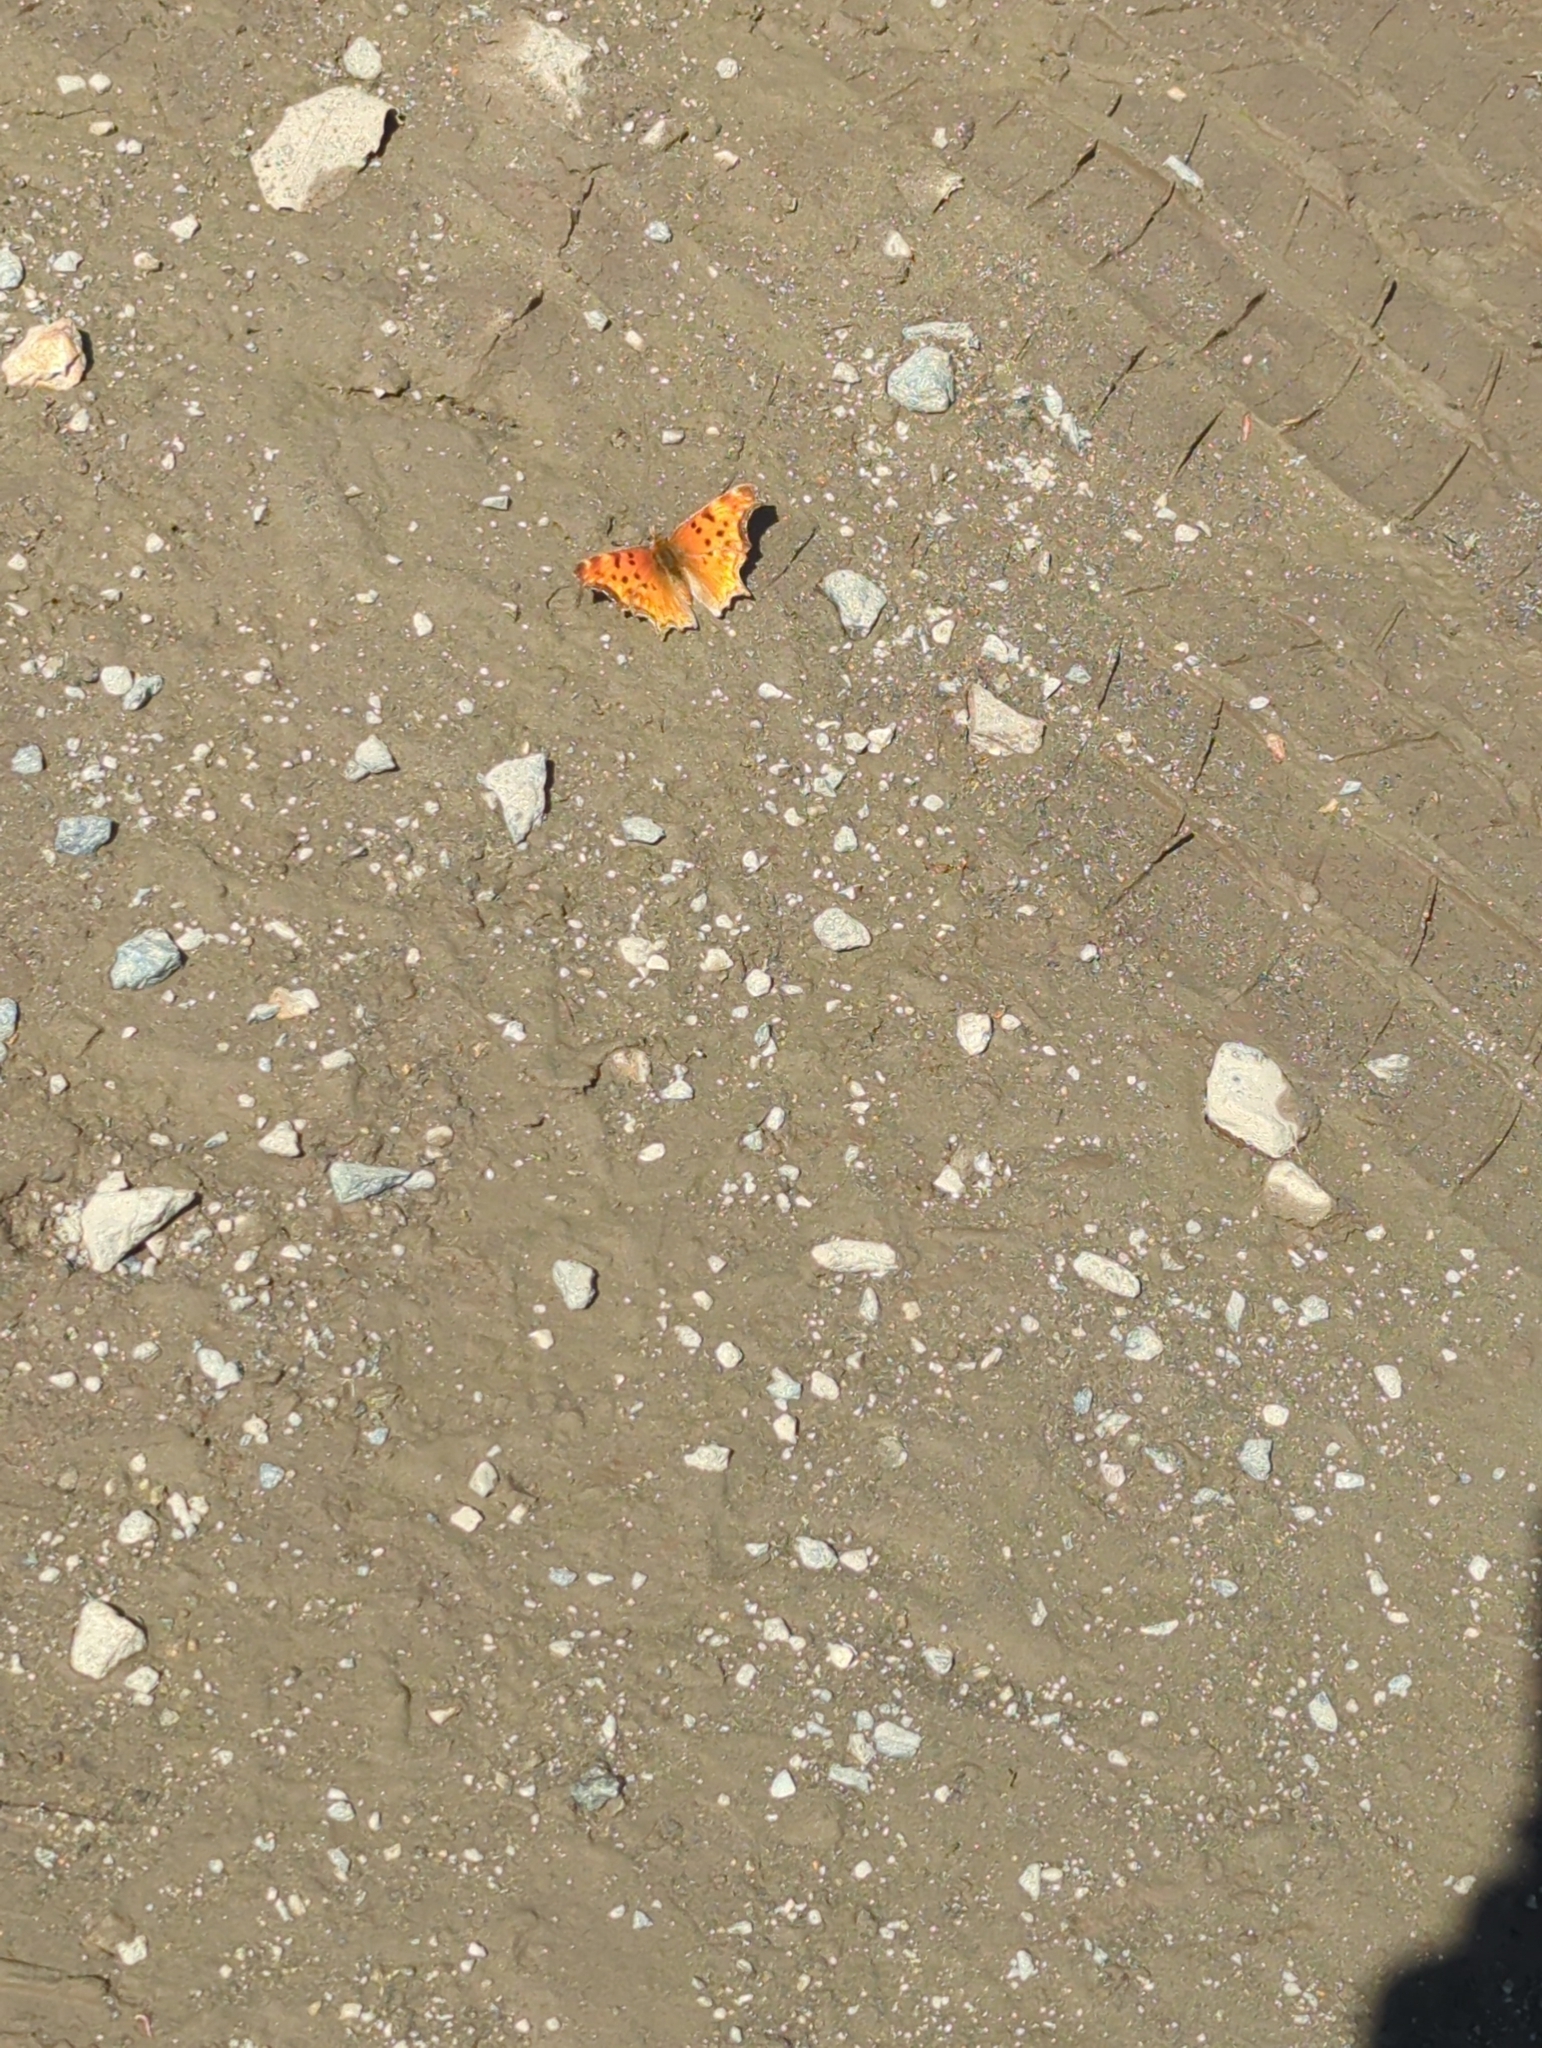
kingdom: Animalia
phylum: Arthropoda
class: Insecta
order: Lepidoptera
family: Nymphalidae
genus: Polygonia
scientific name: Polygonia gracilis
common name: Hoary comma
